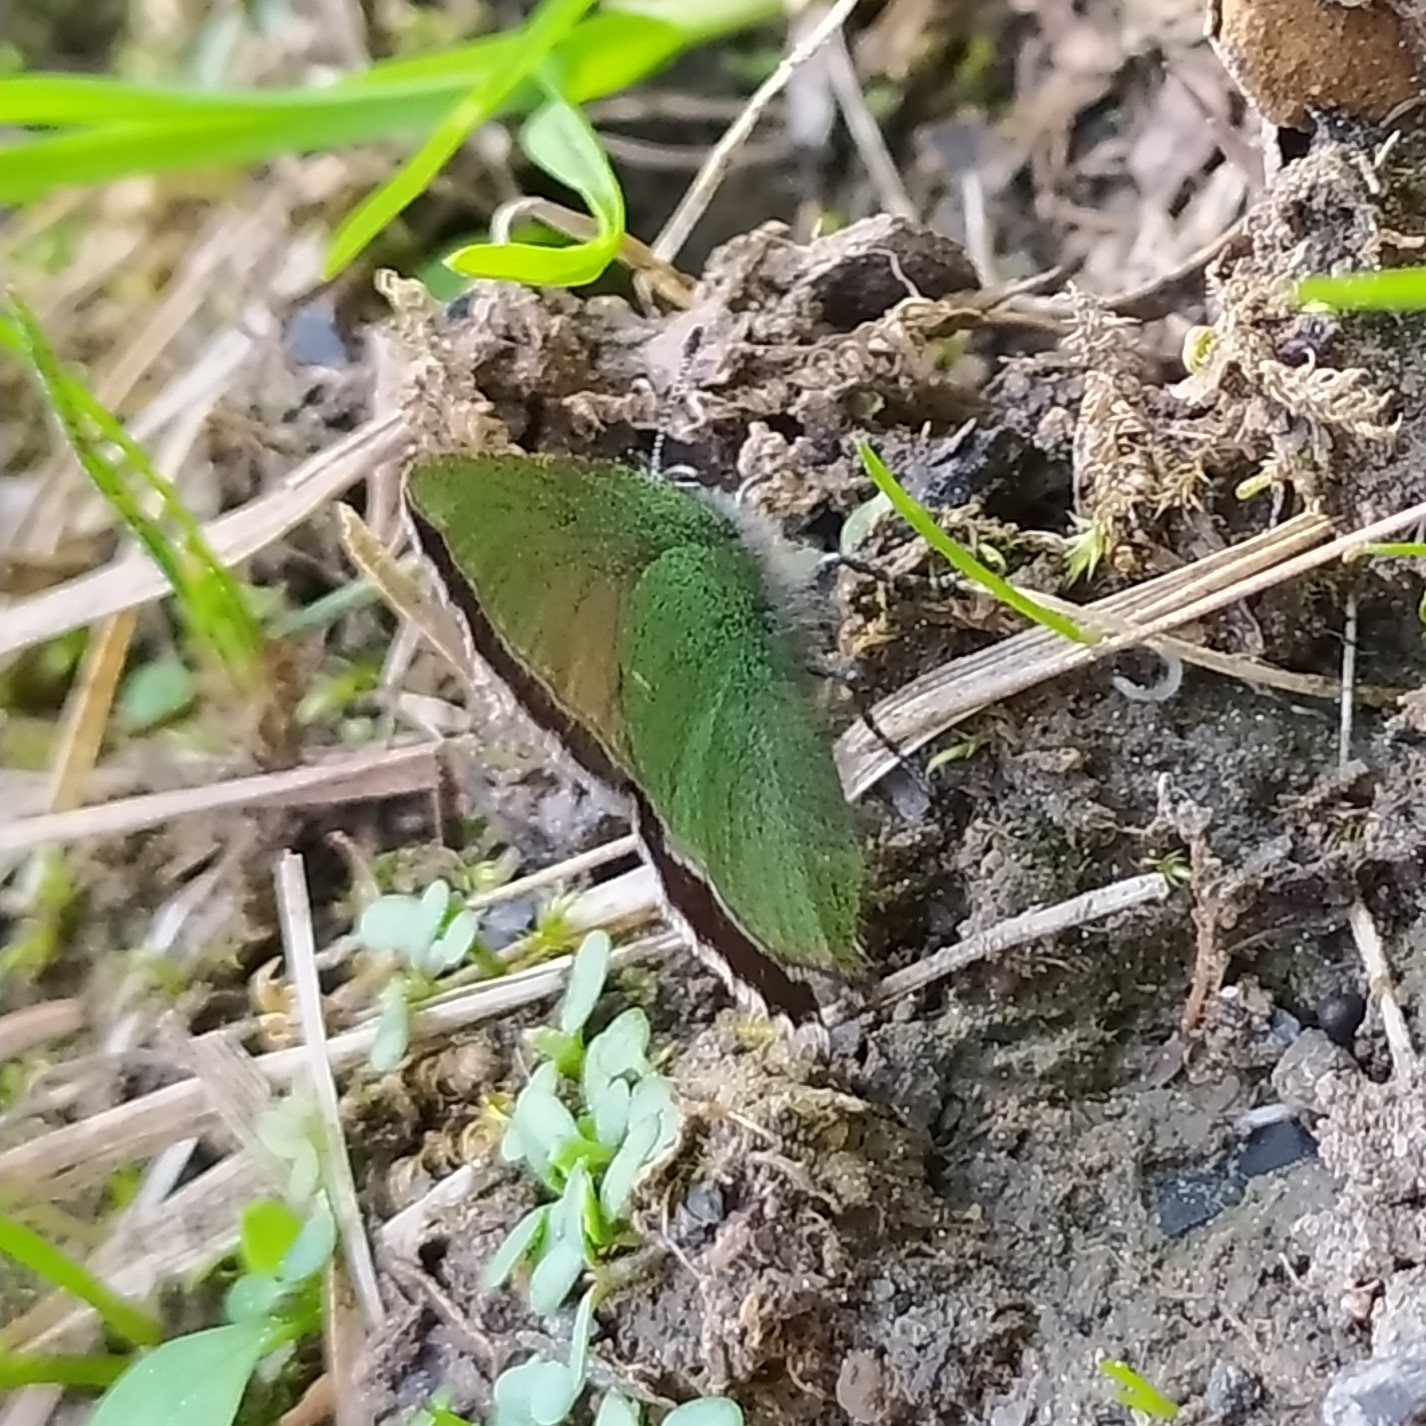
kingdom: Animalia
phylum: Arthropoda
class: Insecta
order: Lepidoptera
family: Lycaenidae
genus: Callophrys
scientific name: Callophrys rubi
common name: Green hairstreak
